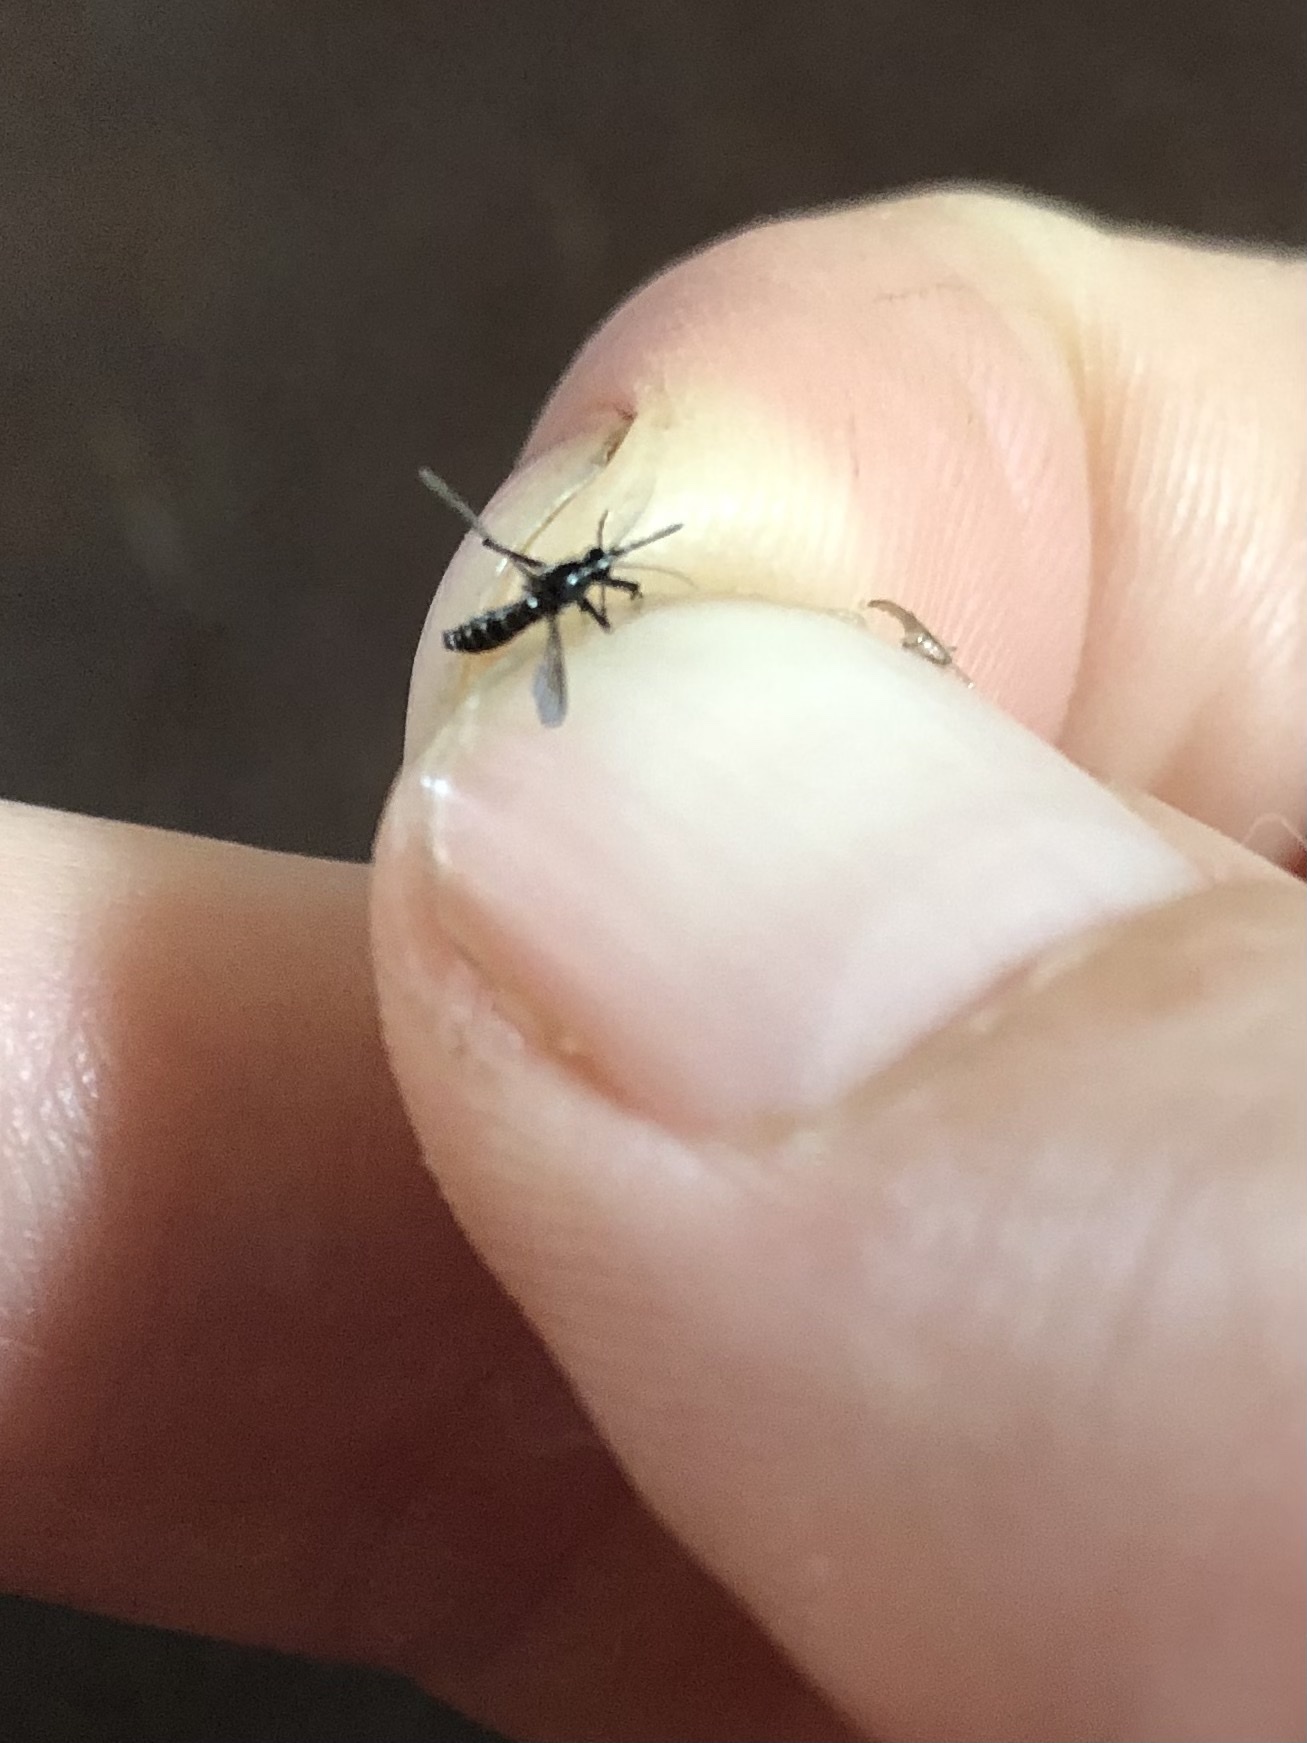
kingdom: Animalia
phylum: Arthropoda
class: Insecta
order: Diptera
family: Culicidae
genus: Aedes
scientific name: Aedes albopictus
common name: Tiger mosquito
